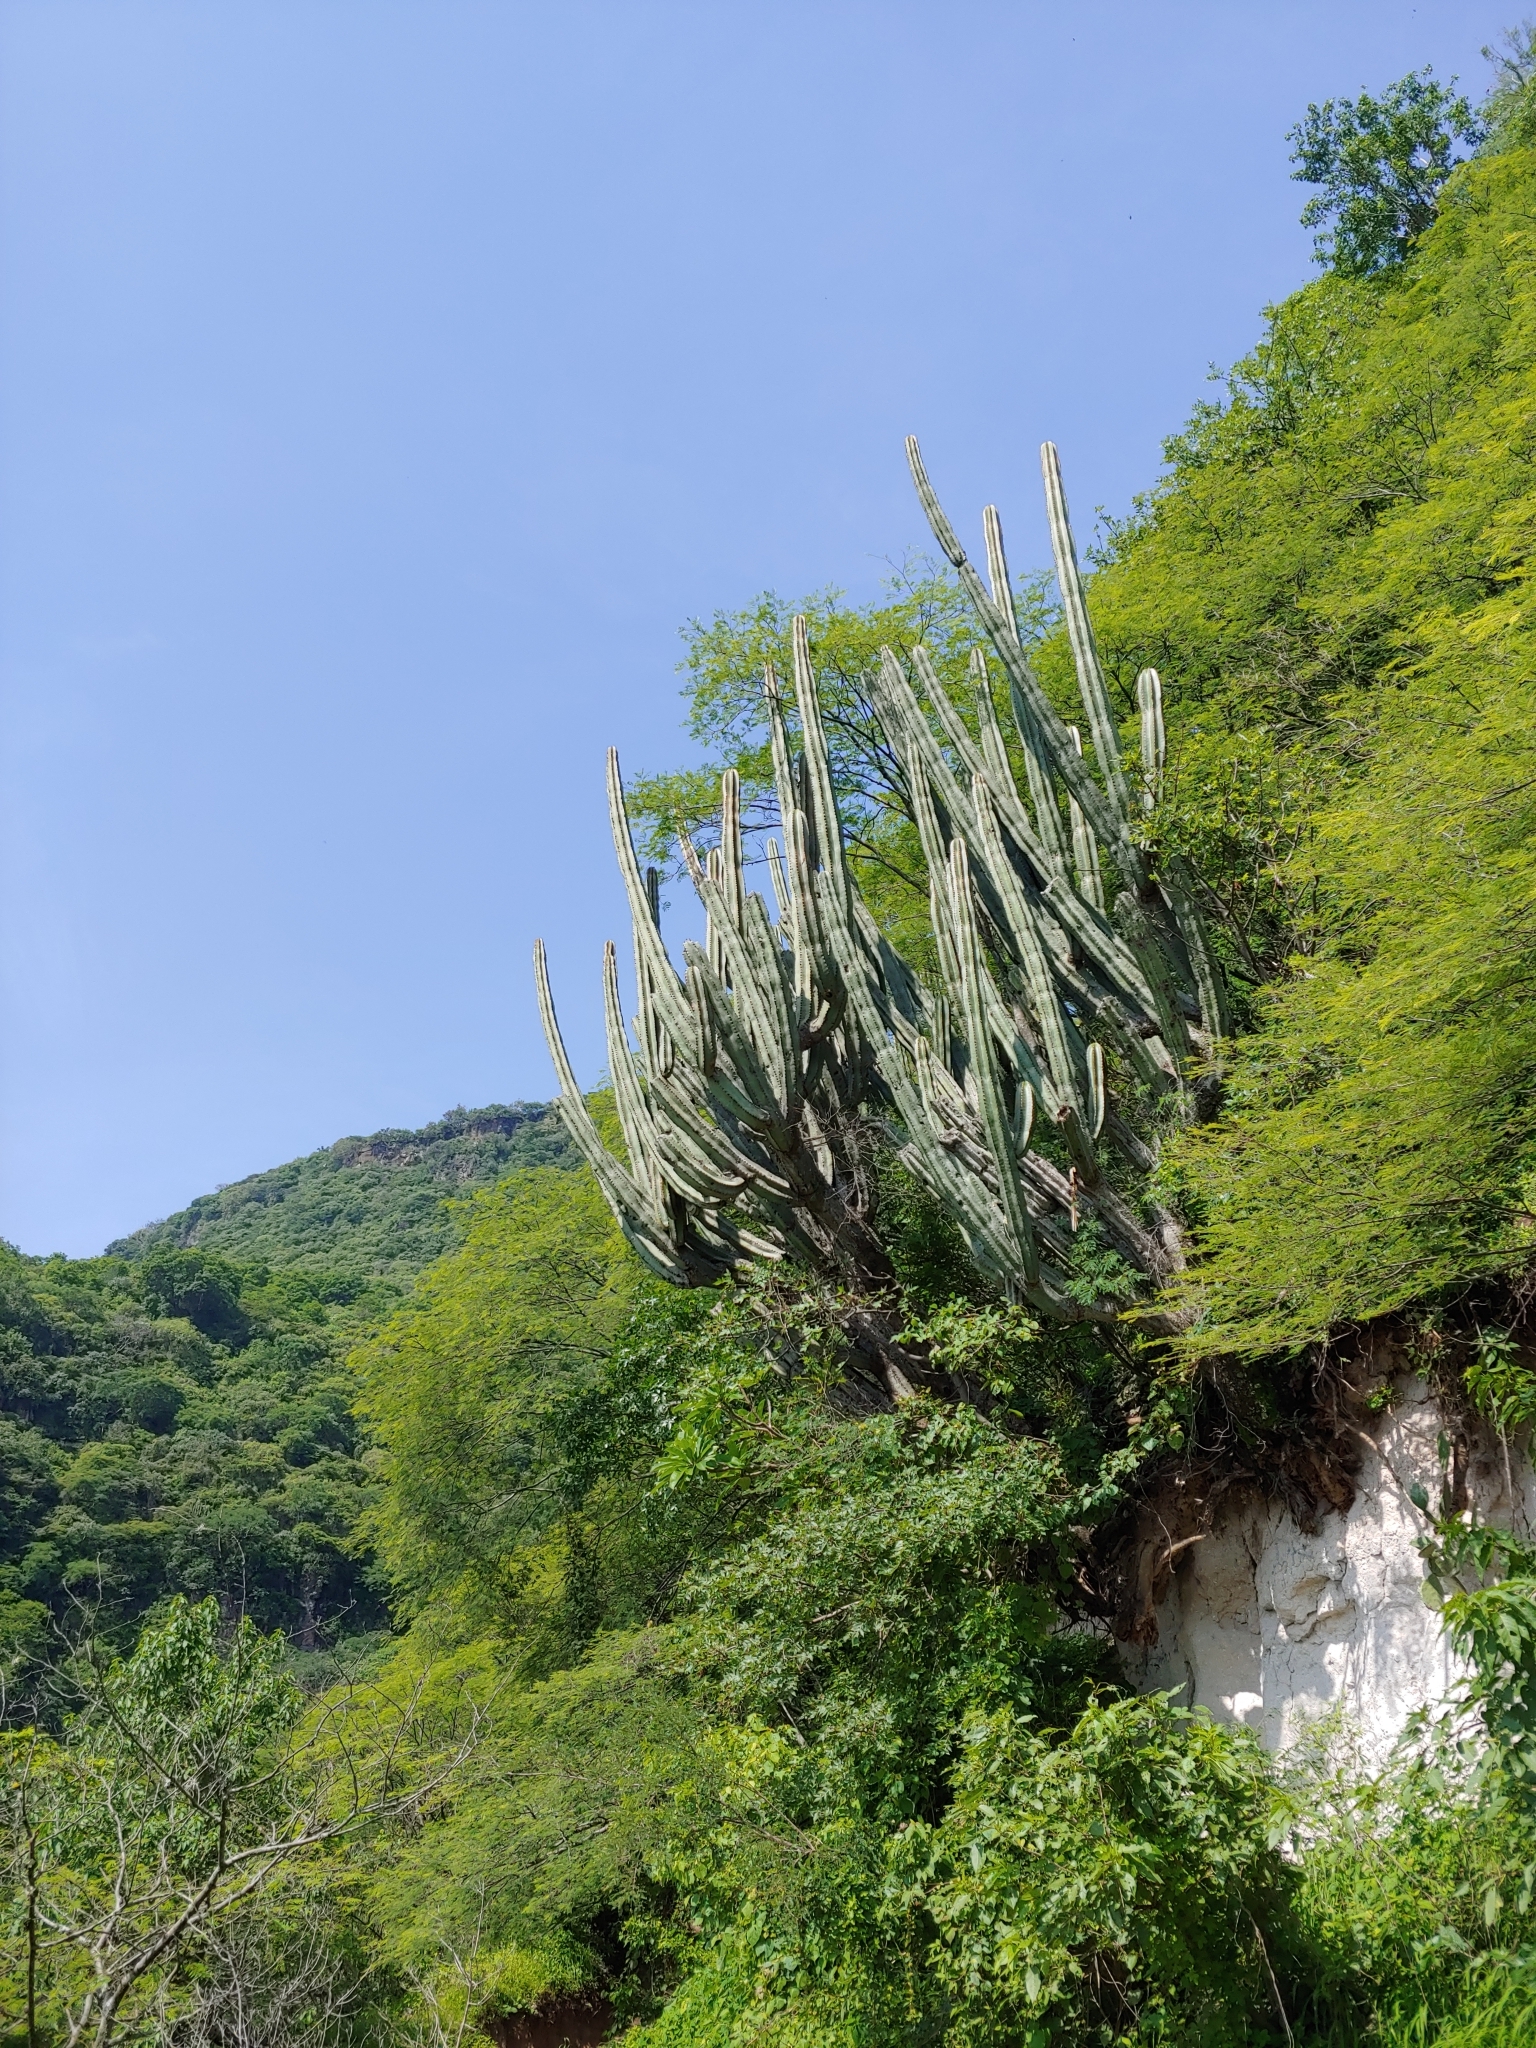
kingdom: Plantae
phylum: Tracheophyta
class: Magnoliopsida
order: Caryophyllales
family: Cactaceae
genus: Stenocereus
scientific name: Stenocereus queretaroensis
